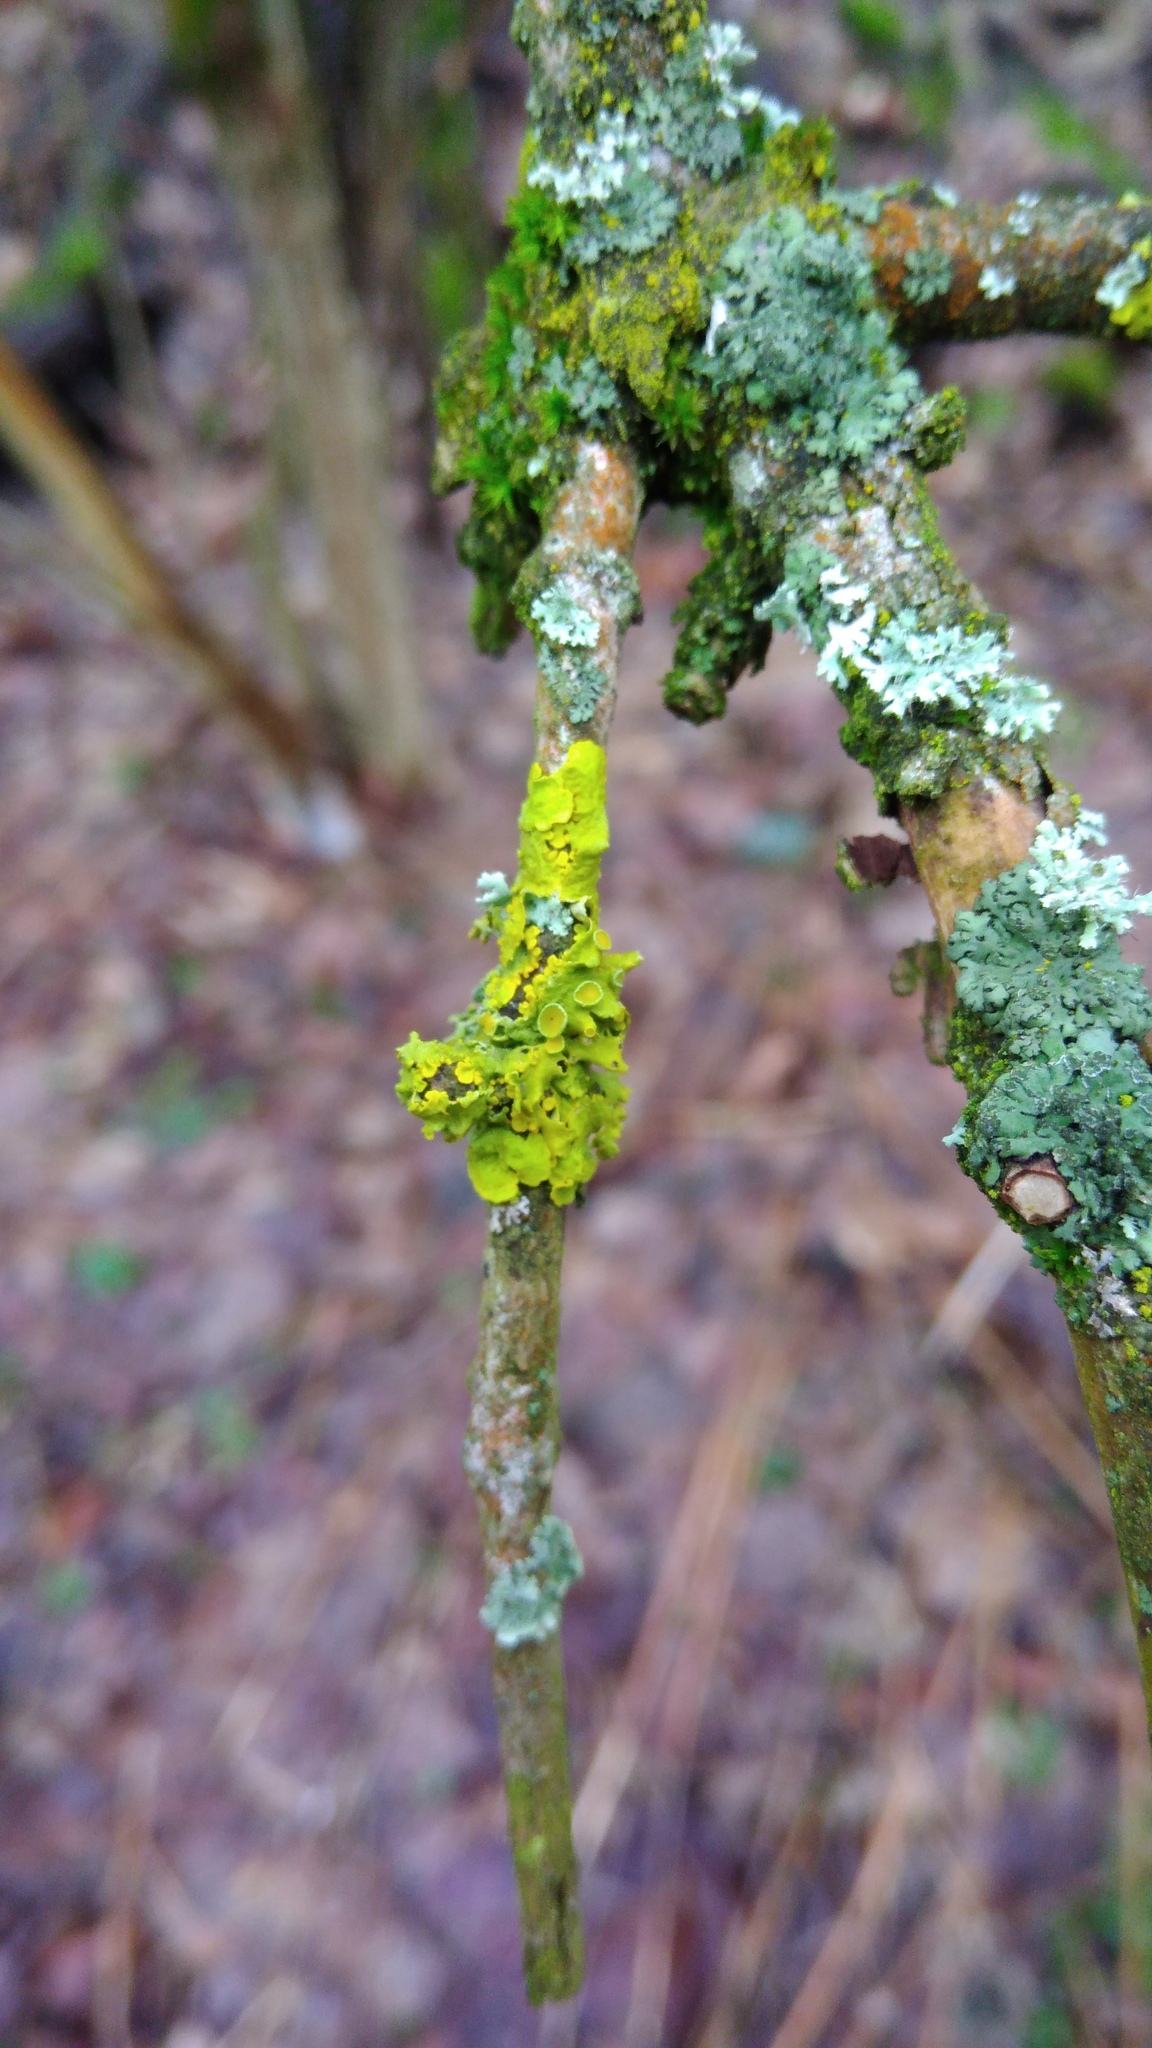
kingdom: Fungi
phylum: Ascomycota
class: Lecanoromycetes
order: Teloschistales
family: Teloschistaceae
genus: Xanthoria
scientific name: Xanthoria parietina
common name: Common orange lichen
